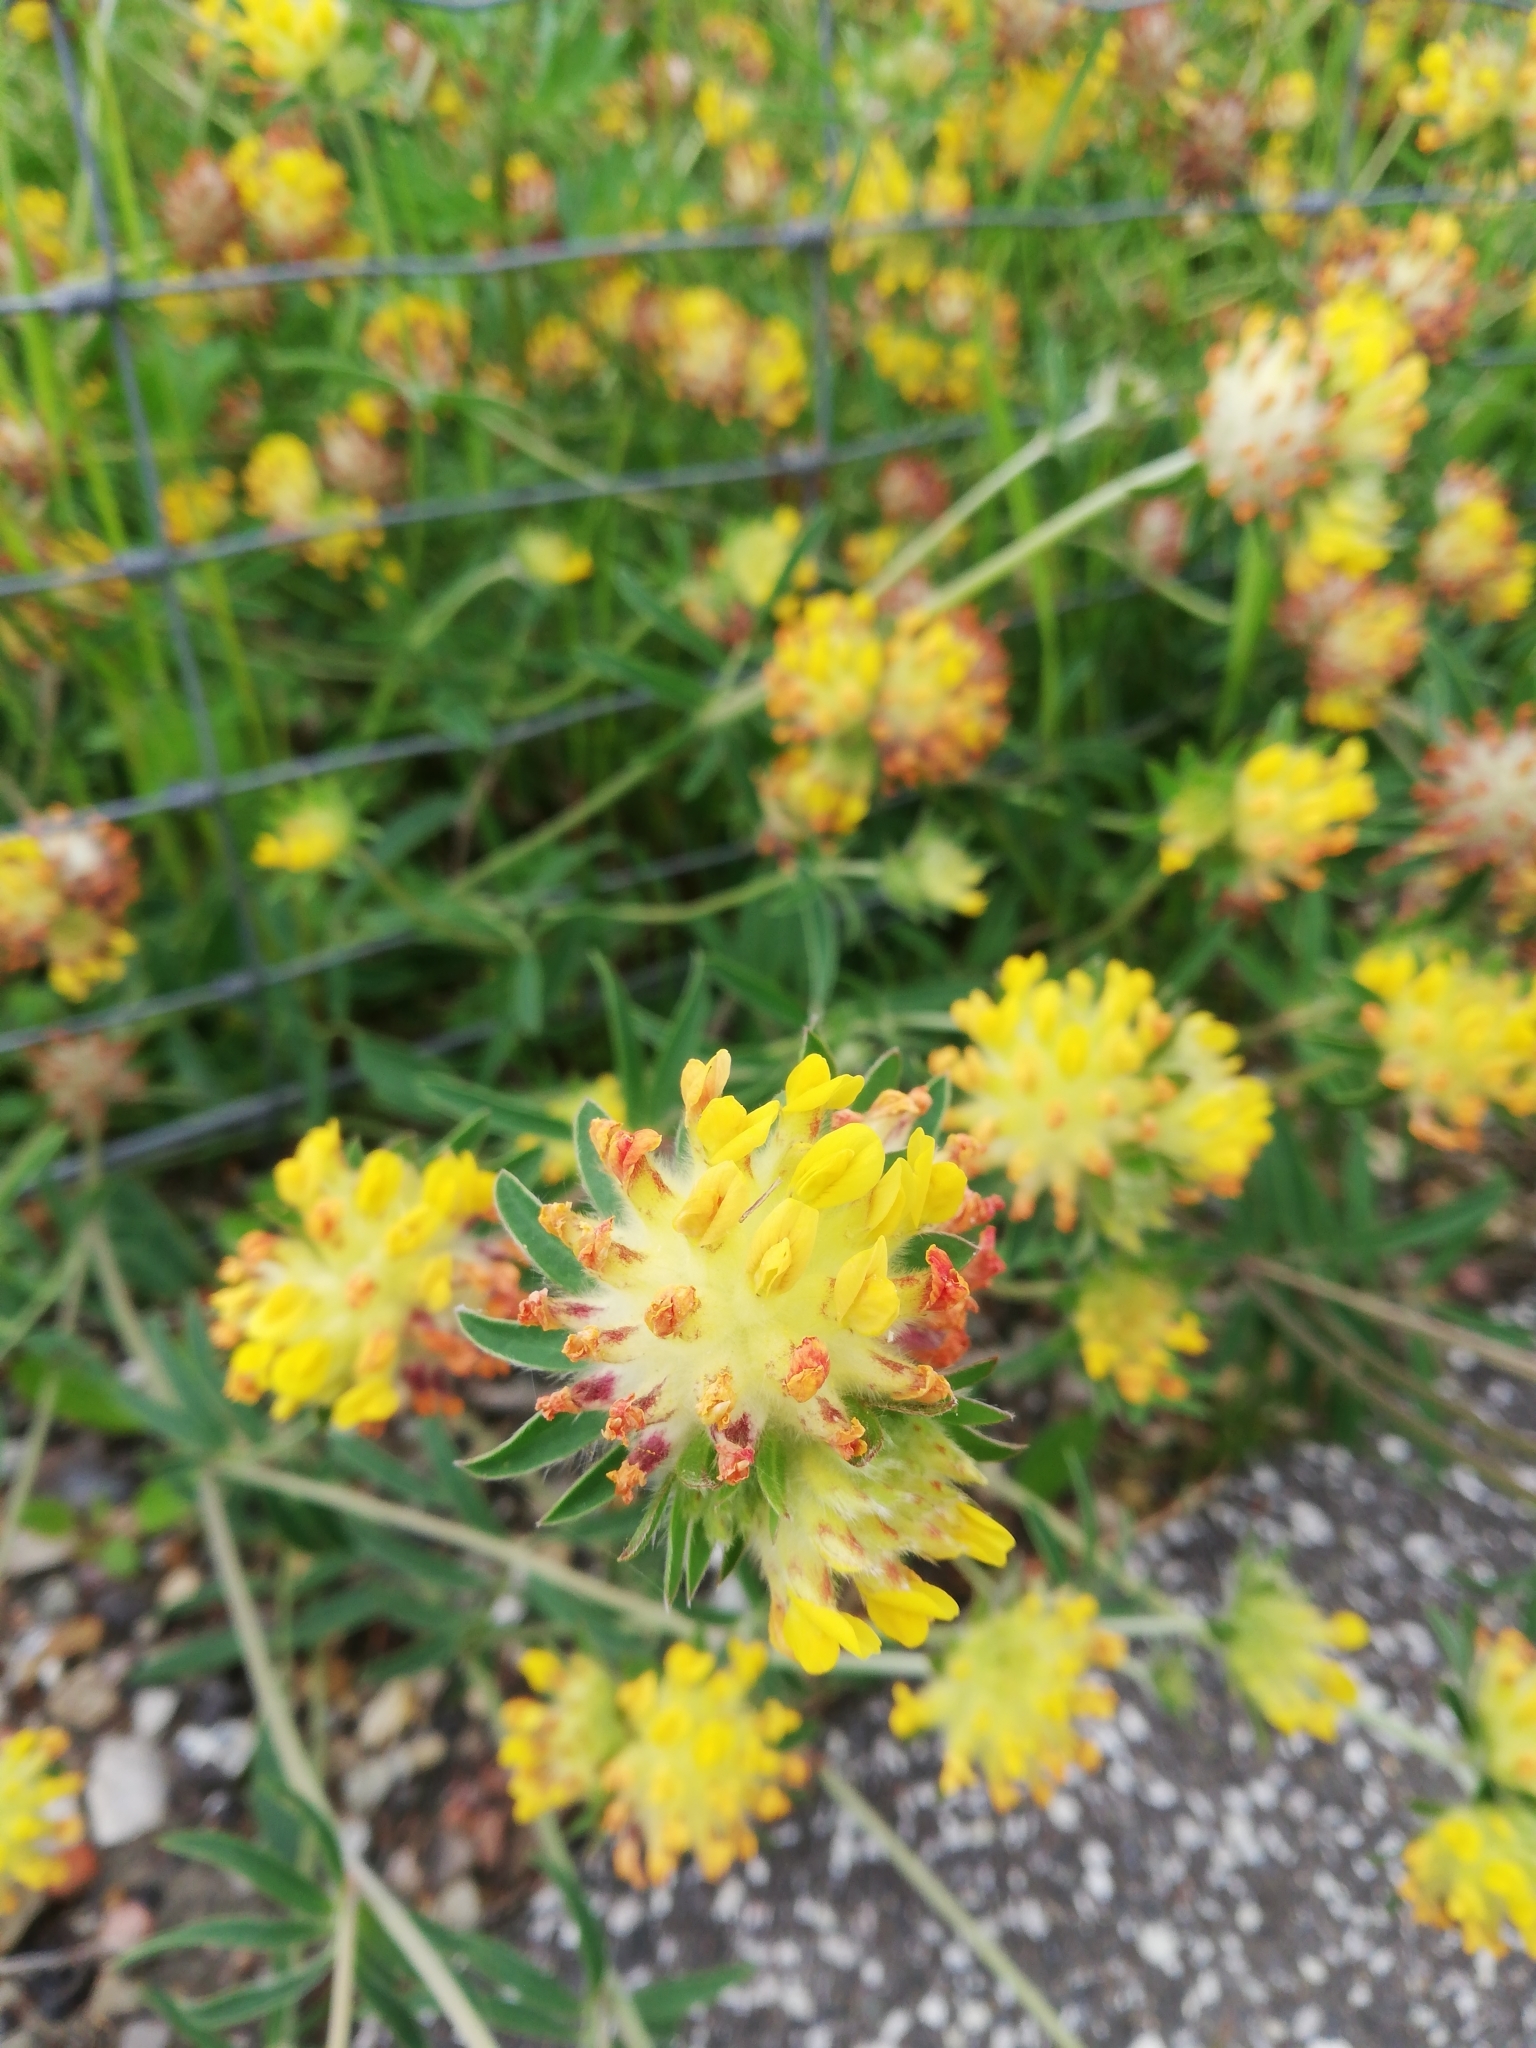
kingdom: Plantae
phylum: Tracheophyta
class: Magnoliopsida
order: Fabales
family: Fabaceae
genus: Anthyllis
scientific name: Anthyllis vulneraria
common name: Kidney vetch
